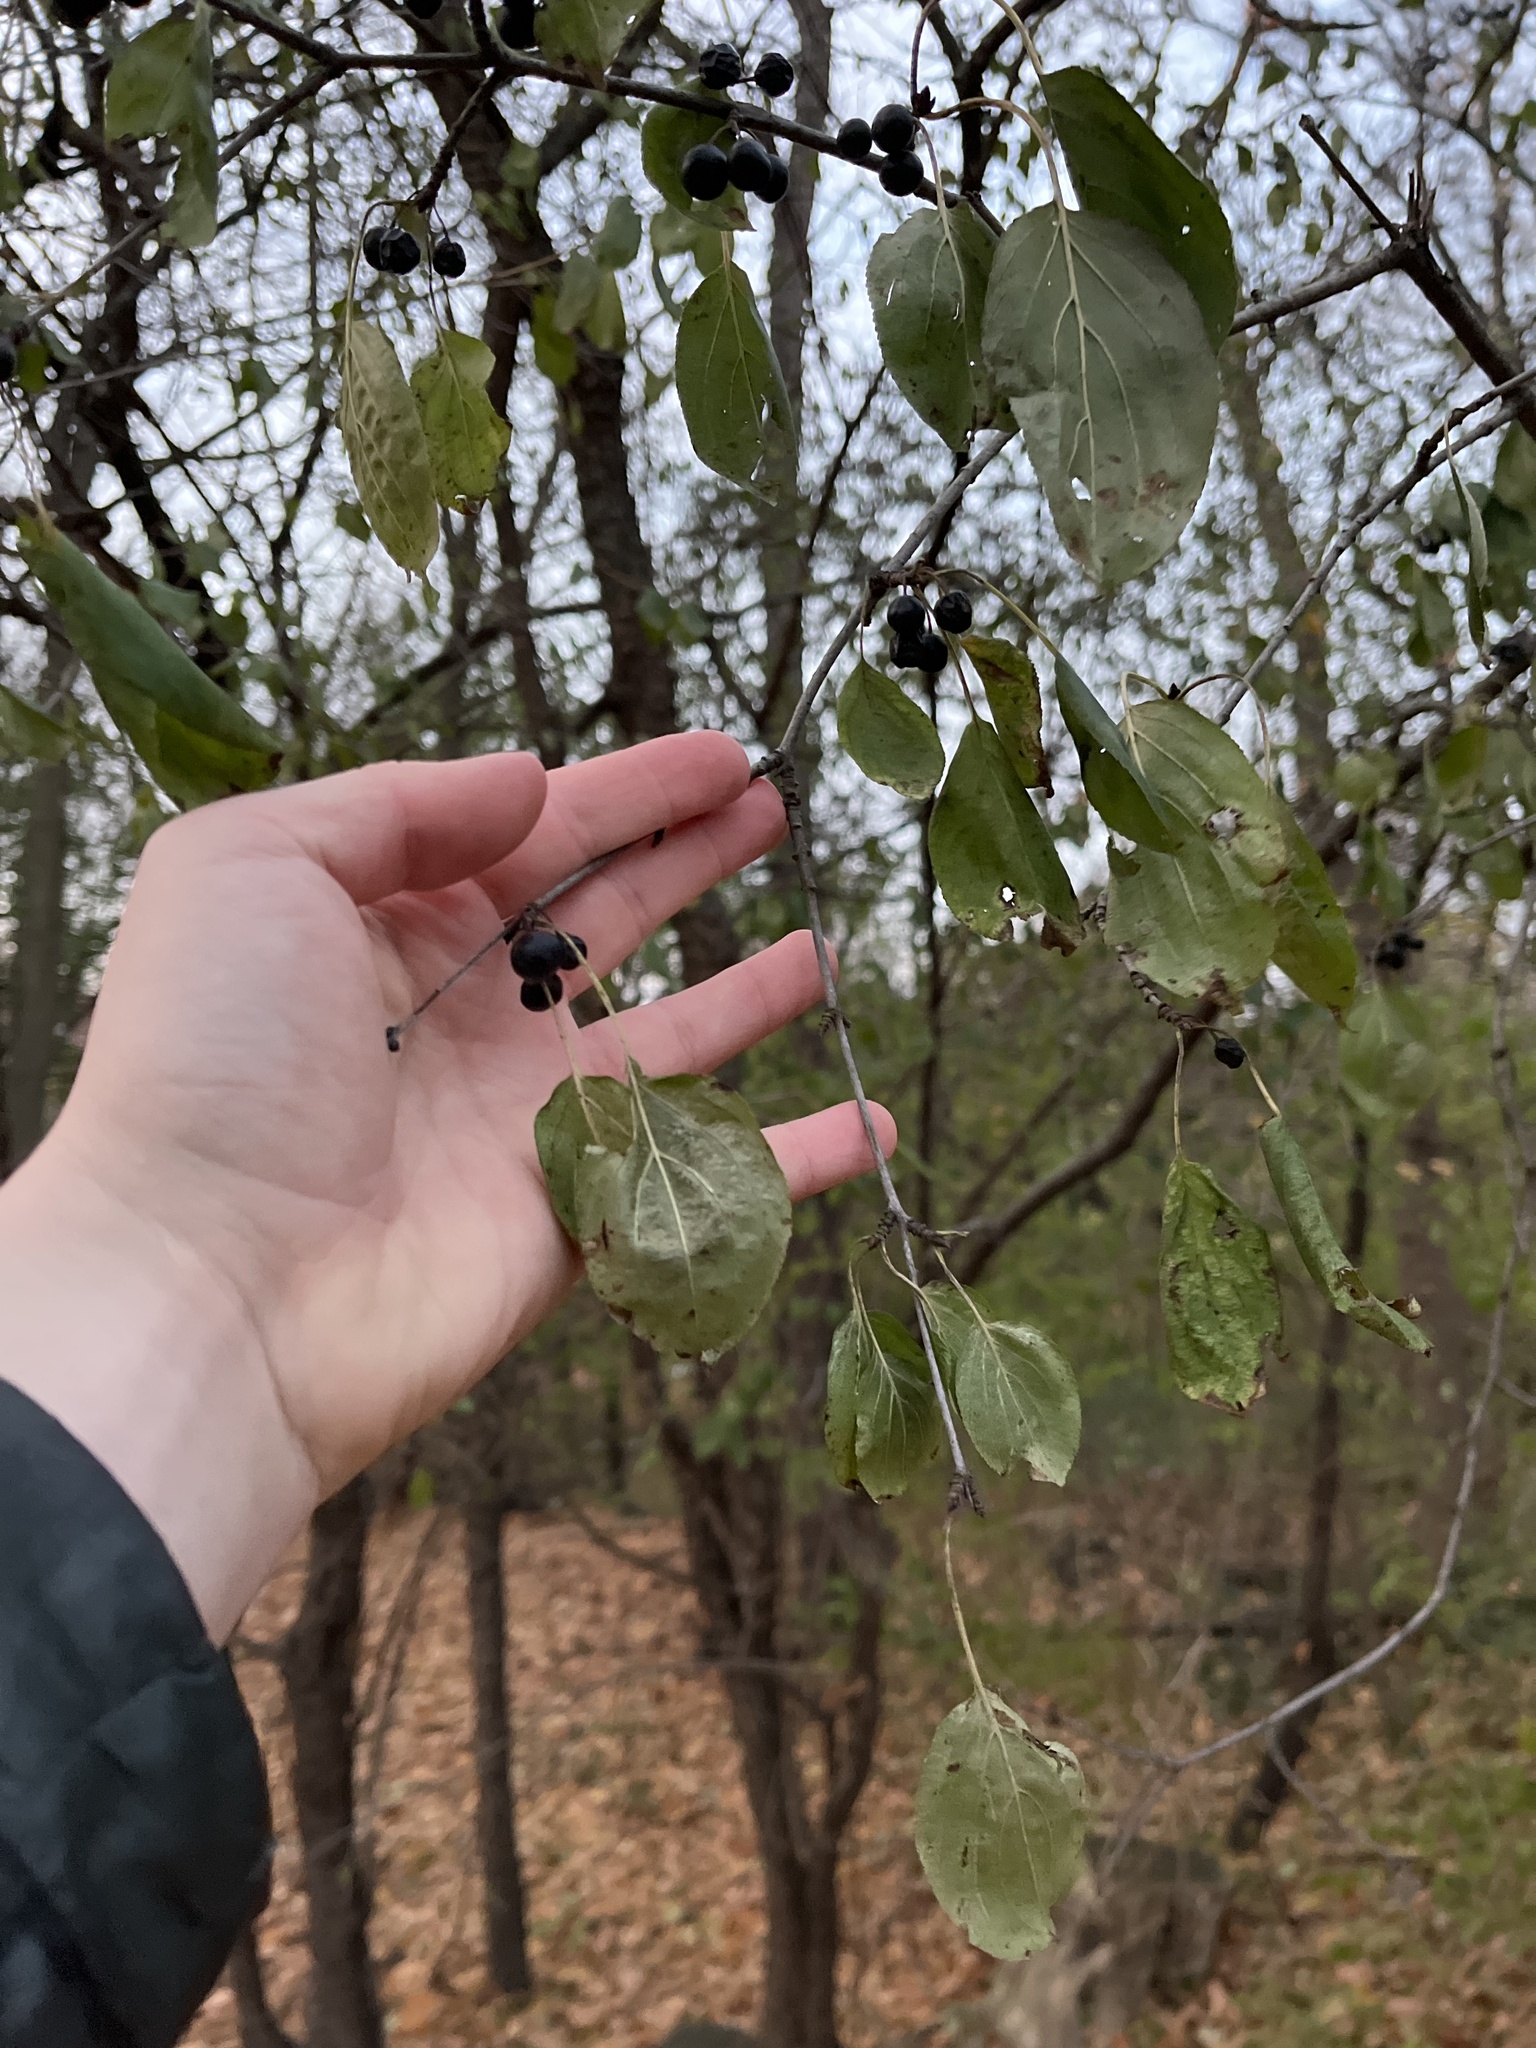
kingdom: Plantae
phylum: Tracheophyta
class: Magnoliopsida
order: Rosales
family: Rhamnaceae
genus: Rhamnus
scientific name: Rhamnus cathartica
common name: Common buckthorn
